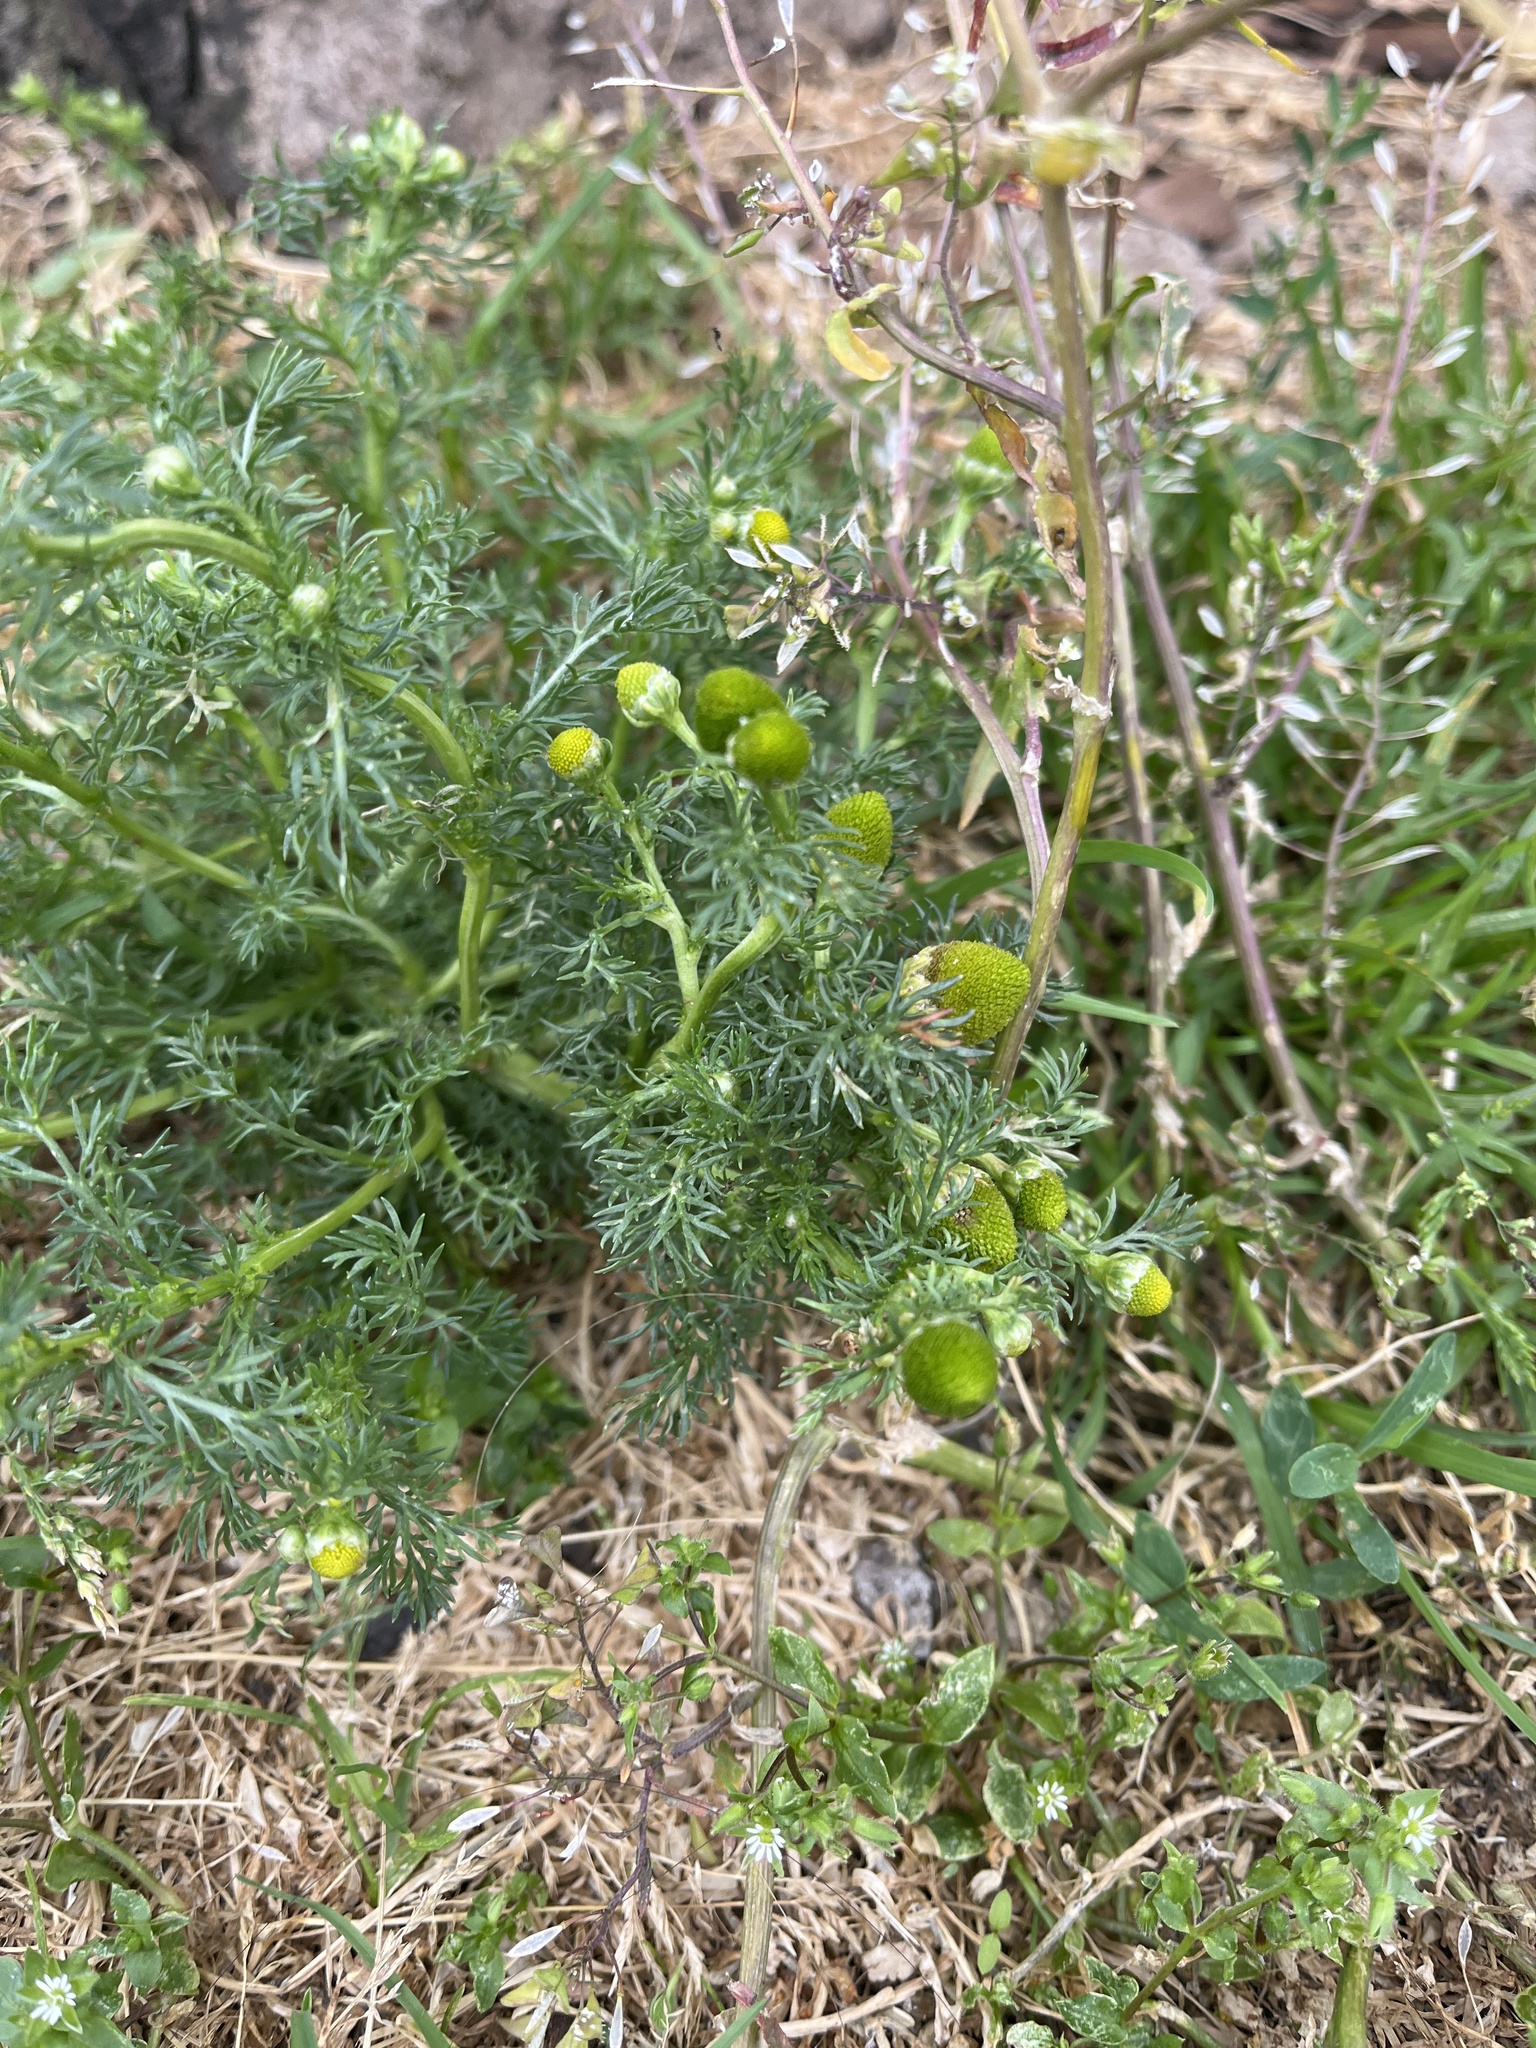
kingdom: Plantae
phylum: Tracheophyta
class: Magnoliopsida
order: Asterales
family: Asteraceae
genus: Matricaria
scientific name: Matricaria discoidea
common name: Disc mayweed
